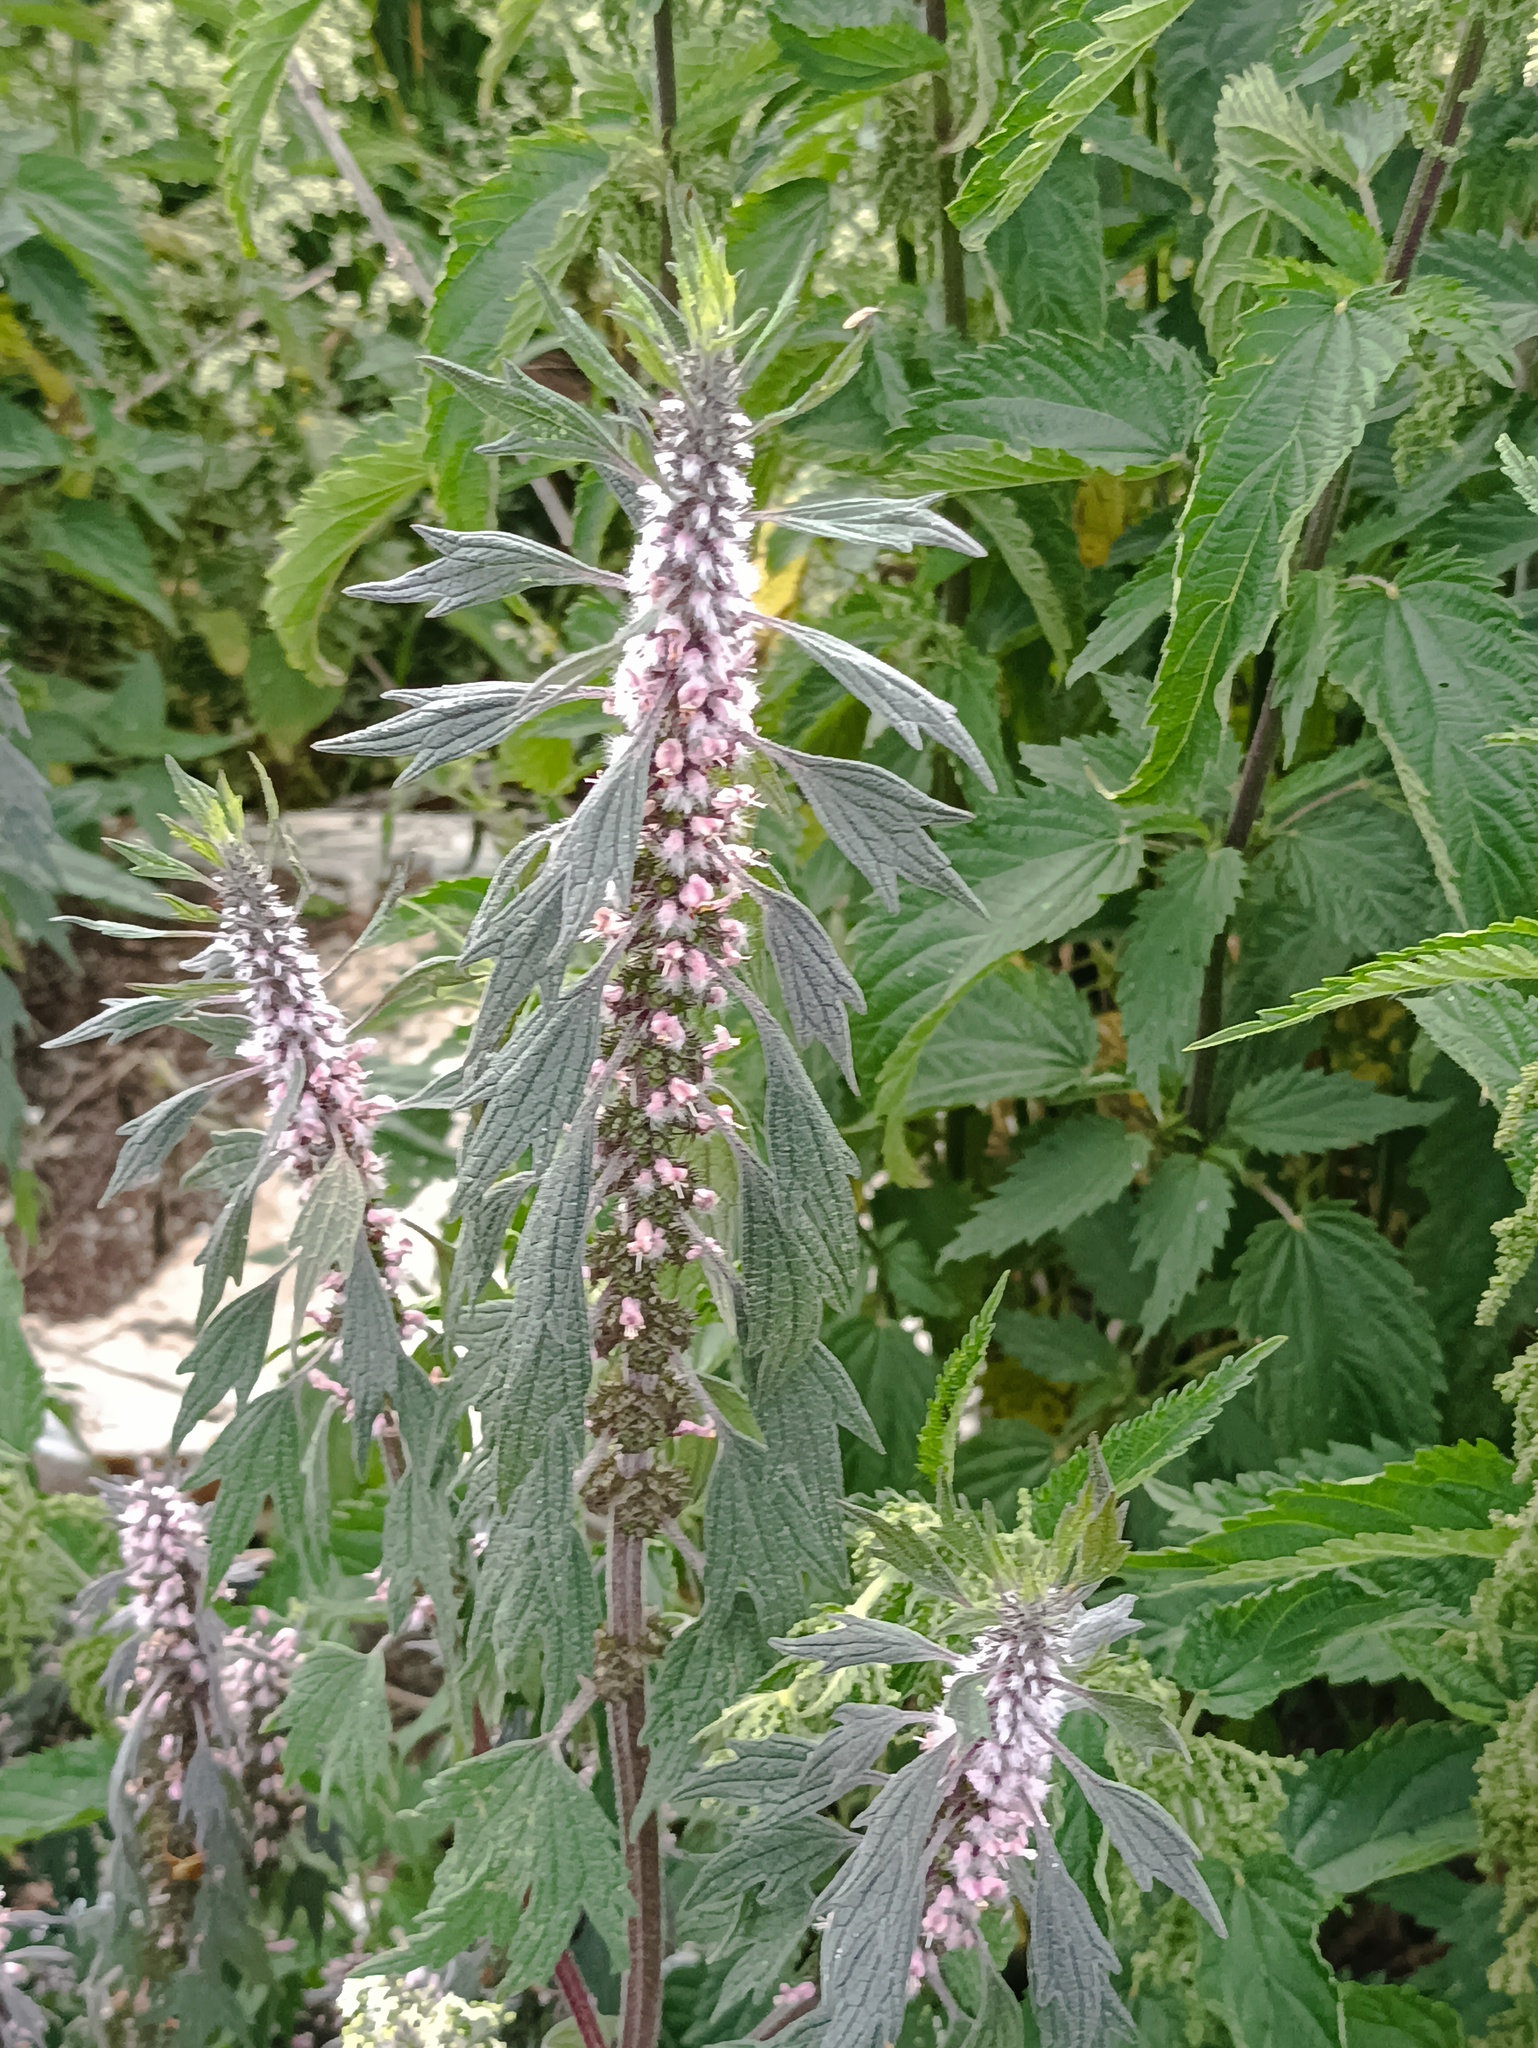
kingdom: Plantae
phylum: Tracheophyta
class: Magnoliopsida
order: Lamiales
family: Lamiaceae
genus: Leonurus
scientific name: Leonurus quinquelobatus
